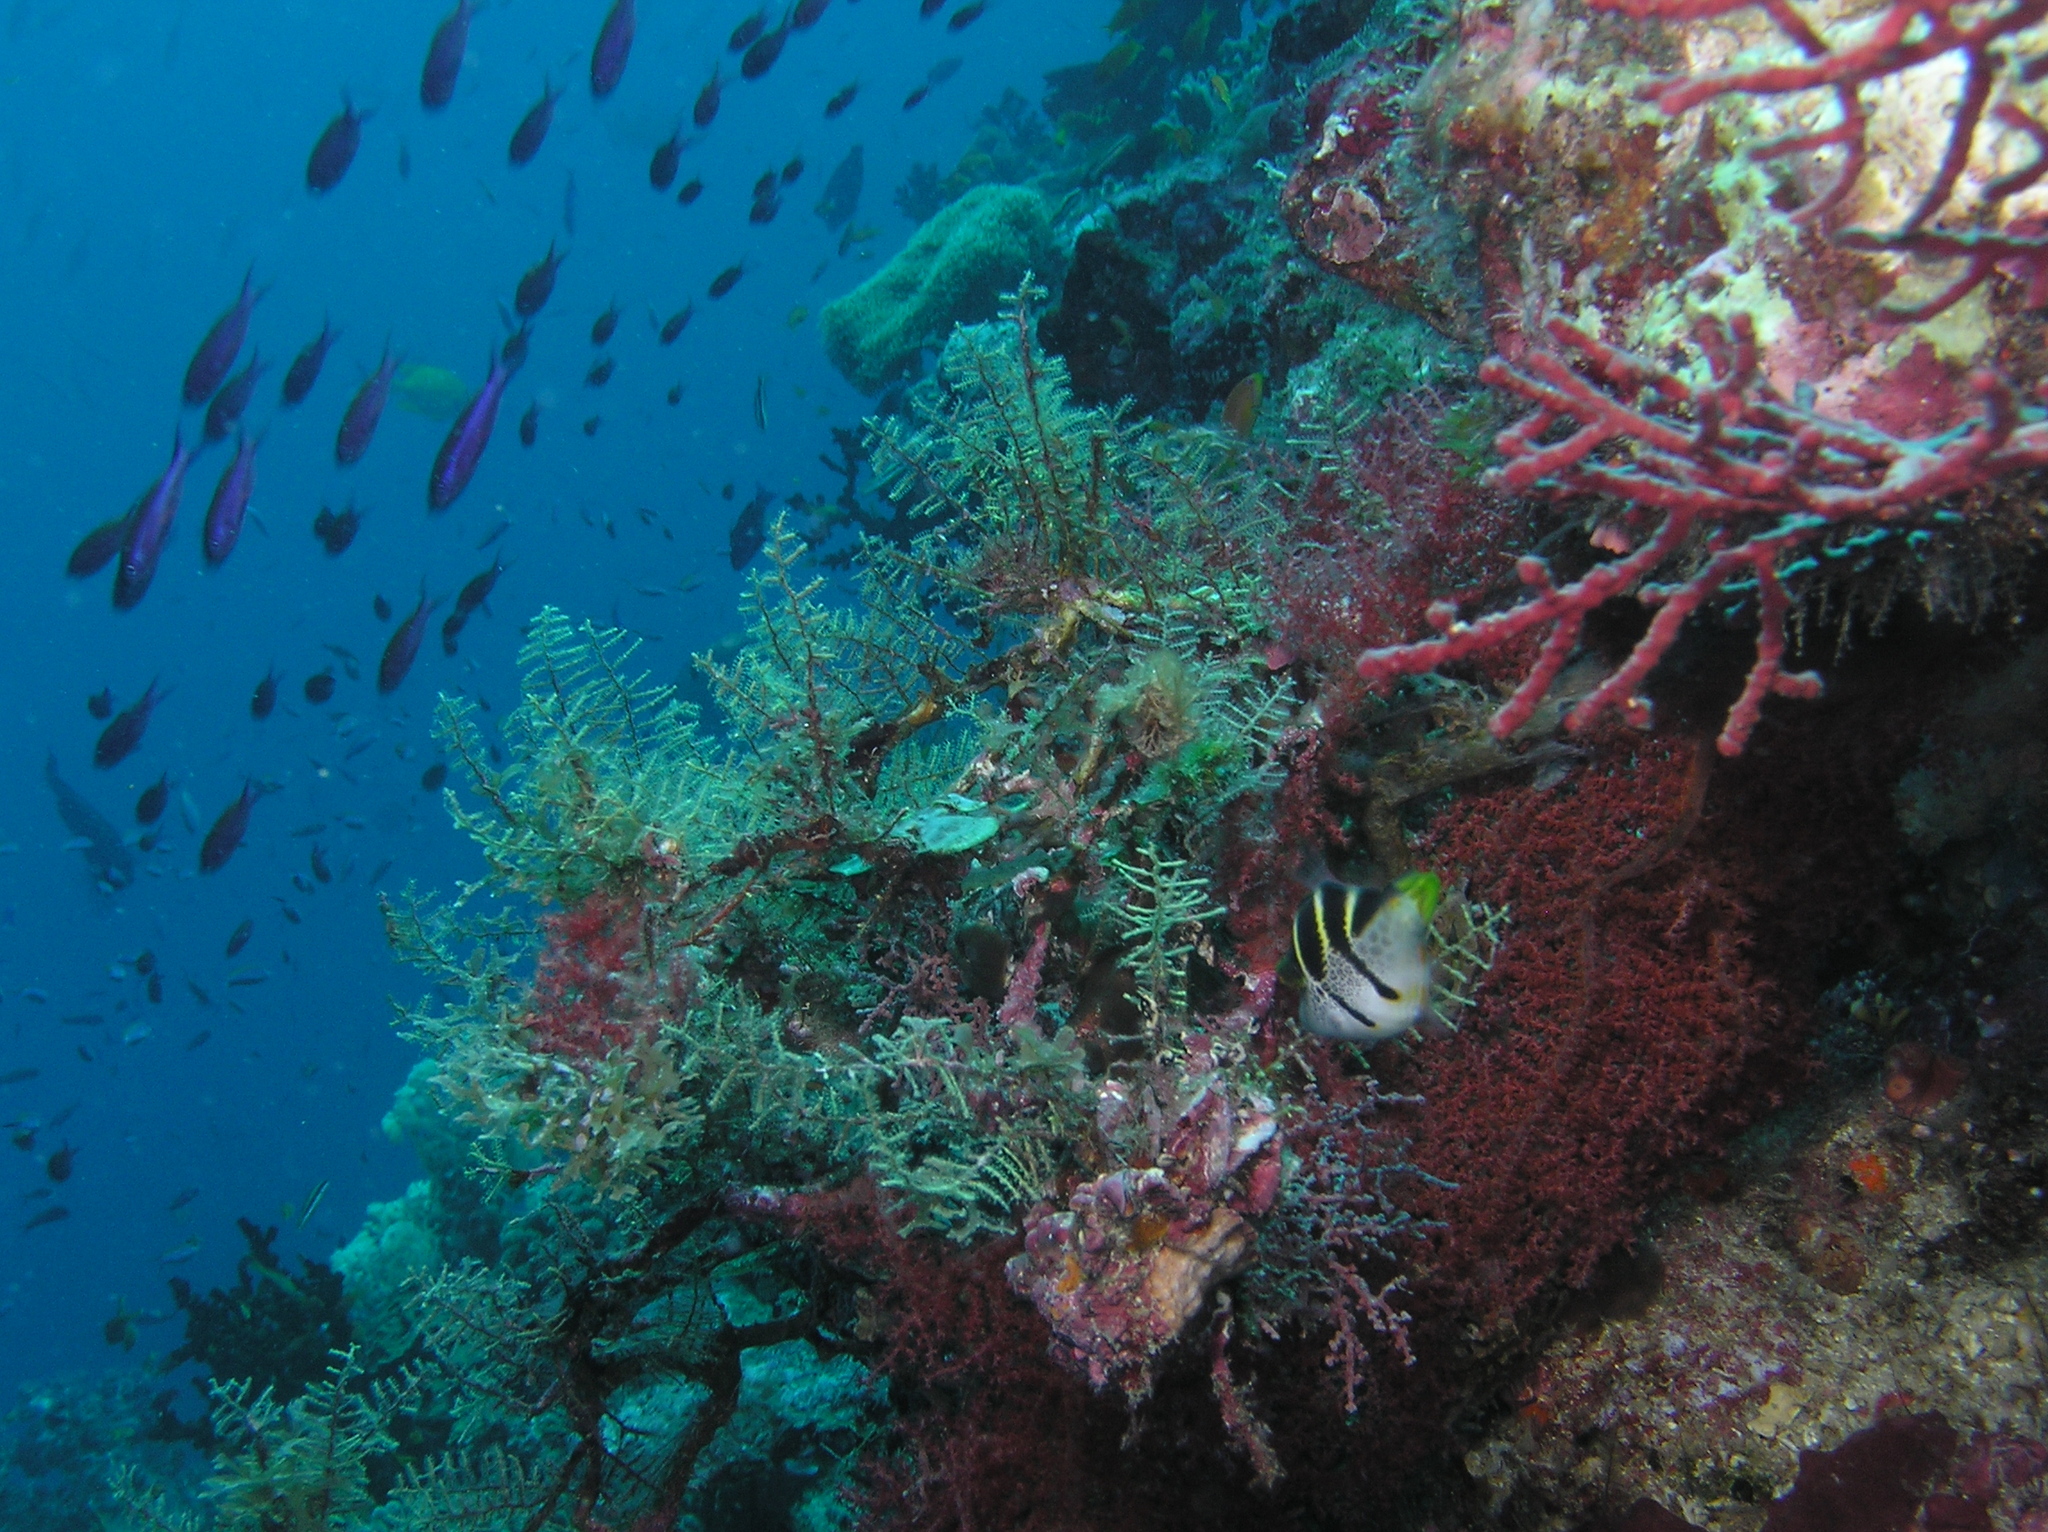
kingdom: Animalia
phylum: Chordata
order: Tetraodontiformes
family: Monacanthidae
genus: Paraluteres
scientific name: Paraluteres prionurus
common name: Black-saddled leatherjacket
